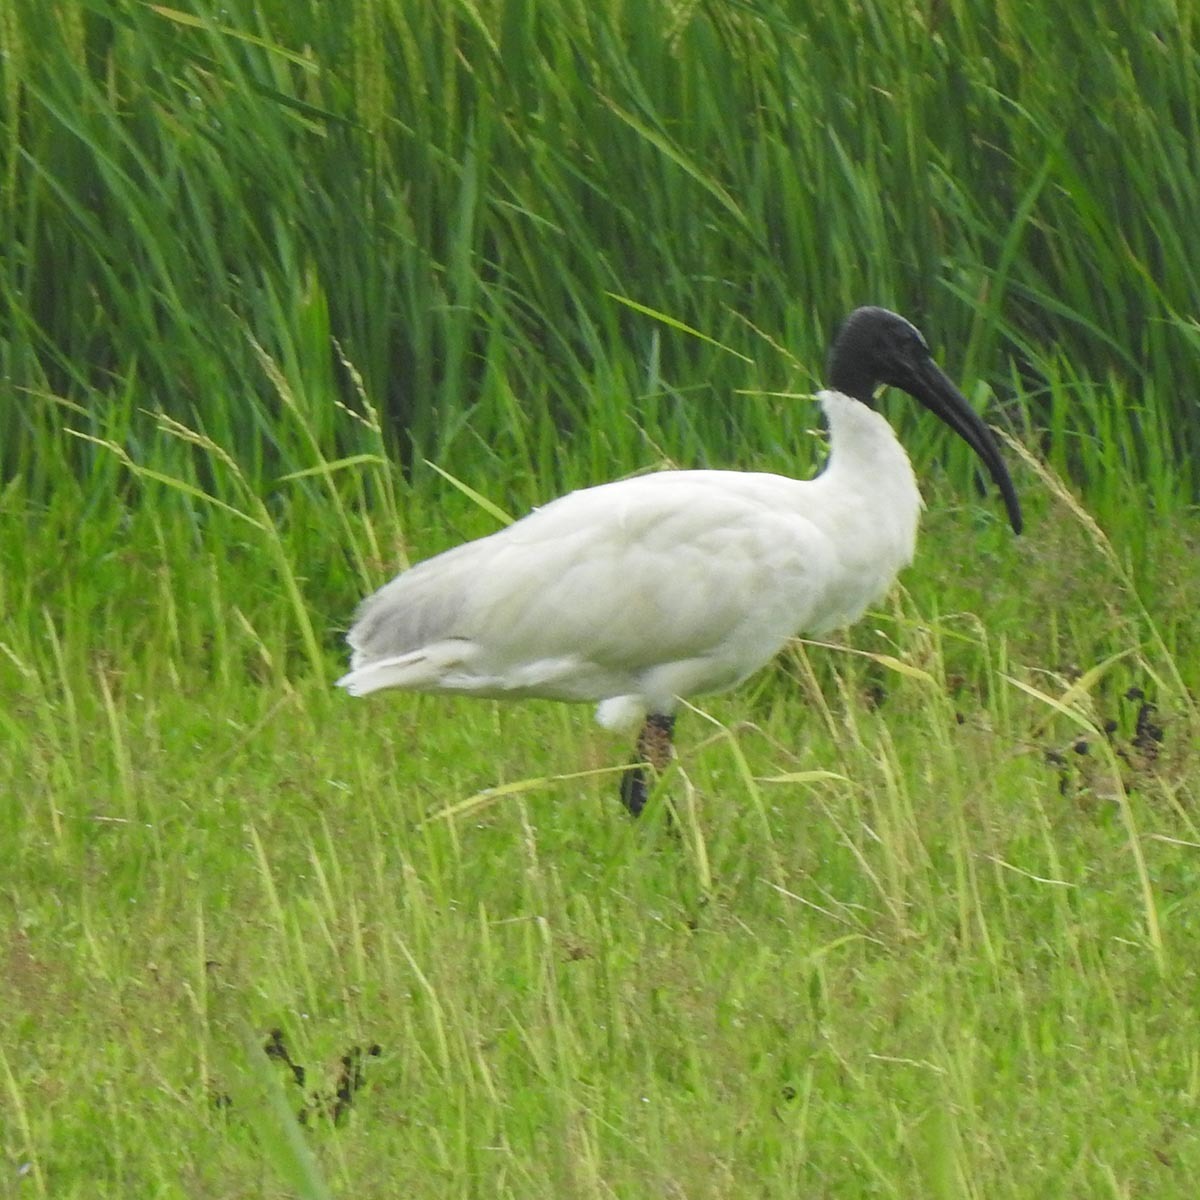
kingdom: Animalia
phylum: Chordata
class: Aves
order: Pelecaniformes
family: Threskiornithidae
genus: Threskiornis
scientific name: Threskiornis melanocephalus
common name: Black-headed ibis
